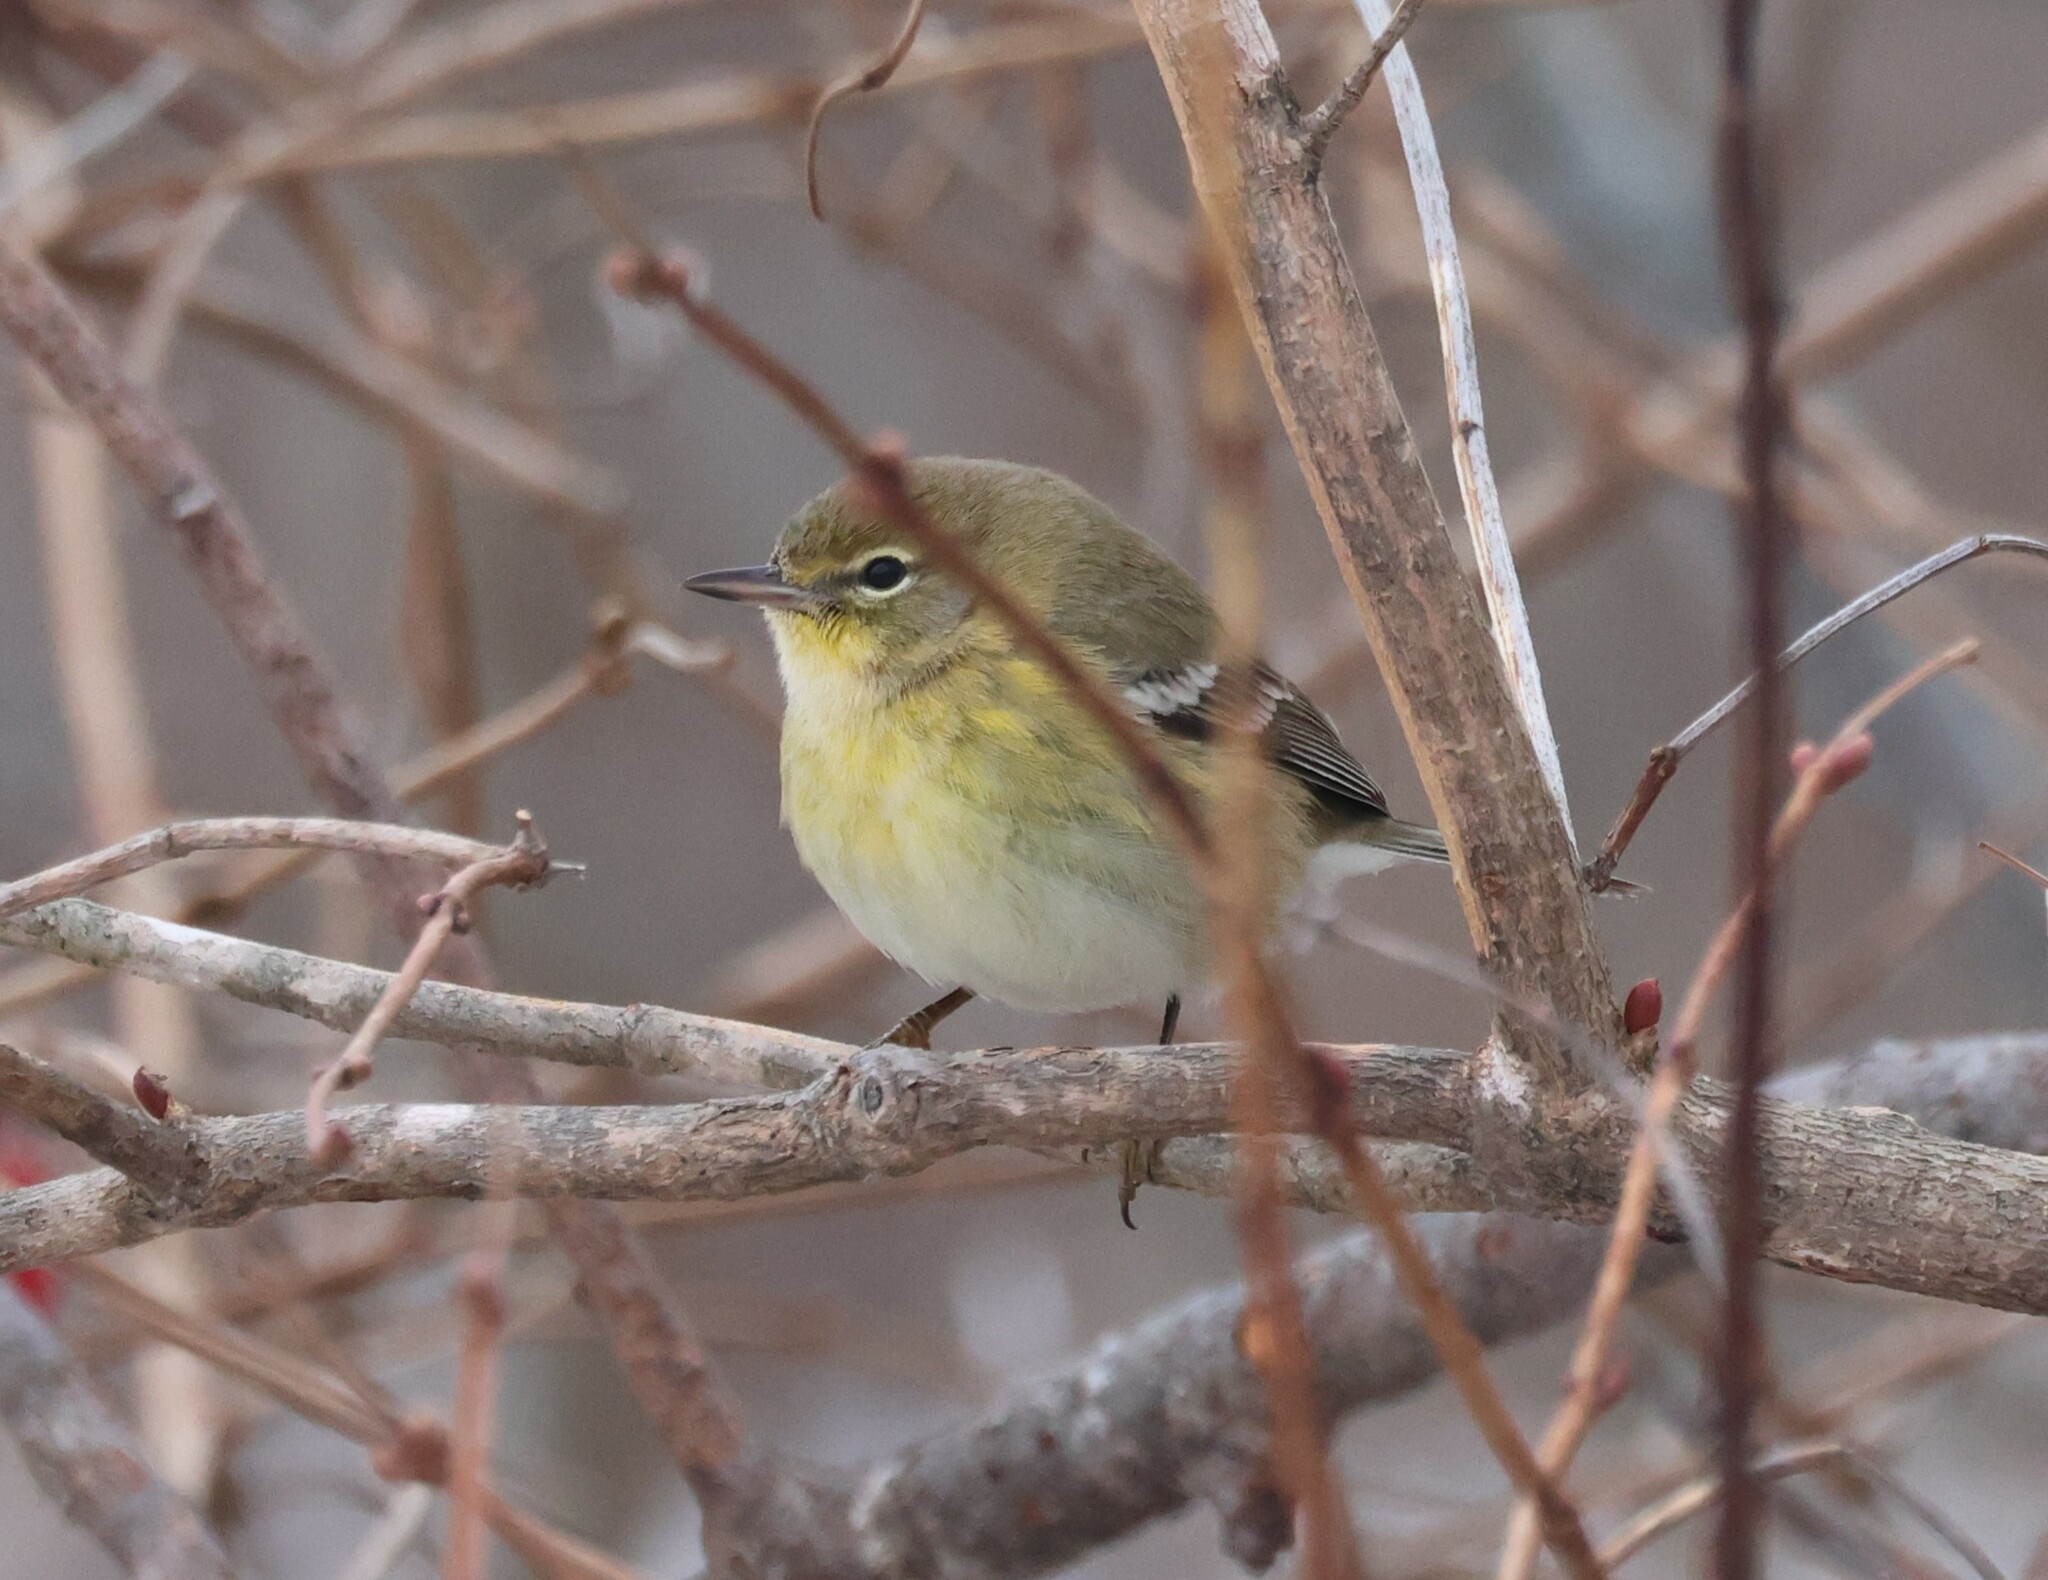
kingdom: Animalia
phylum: Chordata
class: Aves
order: Passeriformes
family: Parulidae
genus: Setophaga
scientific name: Setophaga pinus
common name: Pine warbler
